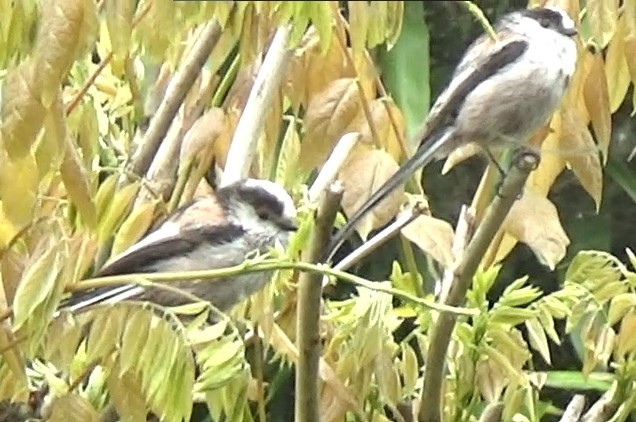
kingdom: Animalia
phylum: Chordata
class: Aves
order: Passeriformes
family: Aegithalidae
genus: Aegithalos
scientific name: Aegithalos caudatus
